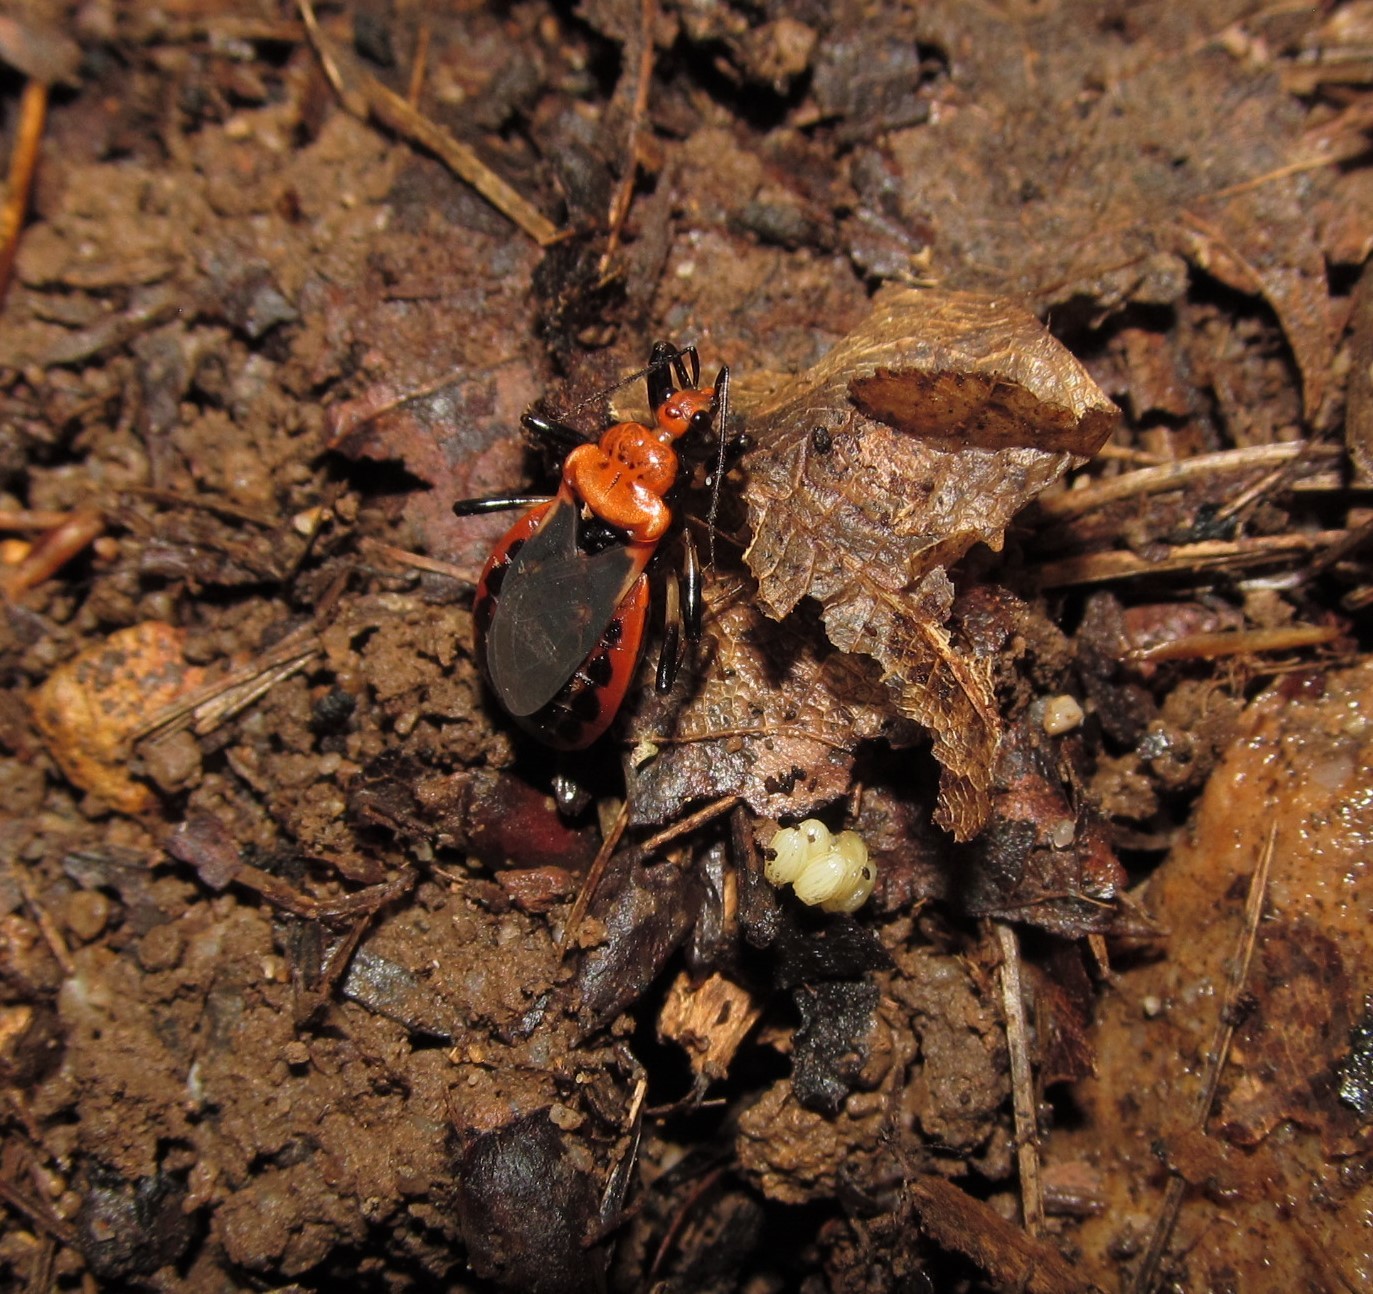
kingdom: Animalia
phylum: Arthropoda
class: Insecta
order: Hemiptera
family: Reduviidae
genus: Rhiginia
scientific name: Rhiginia cruciata
